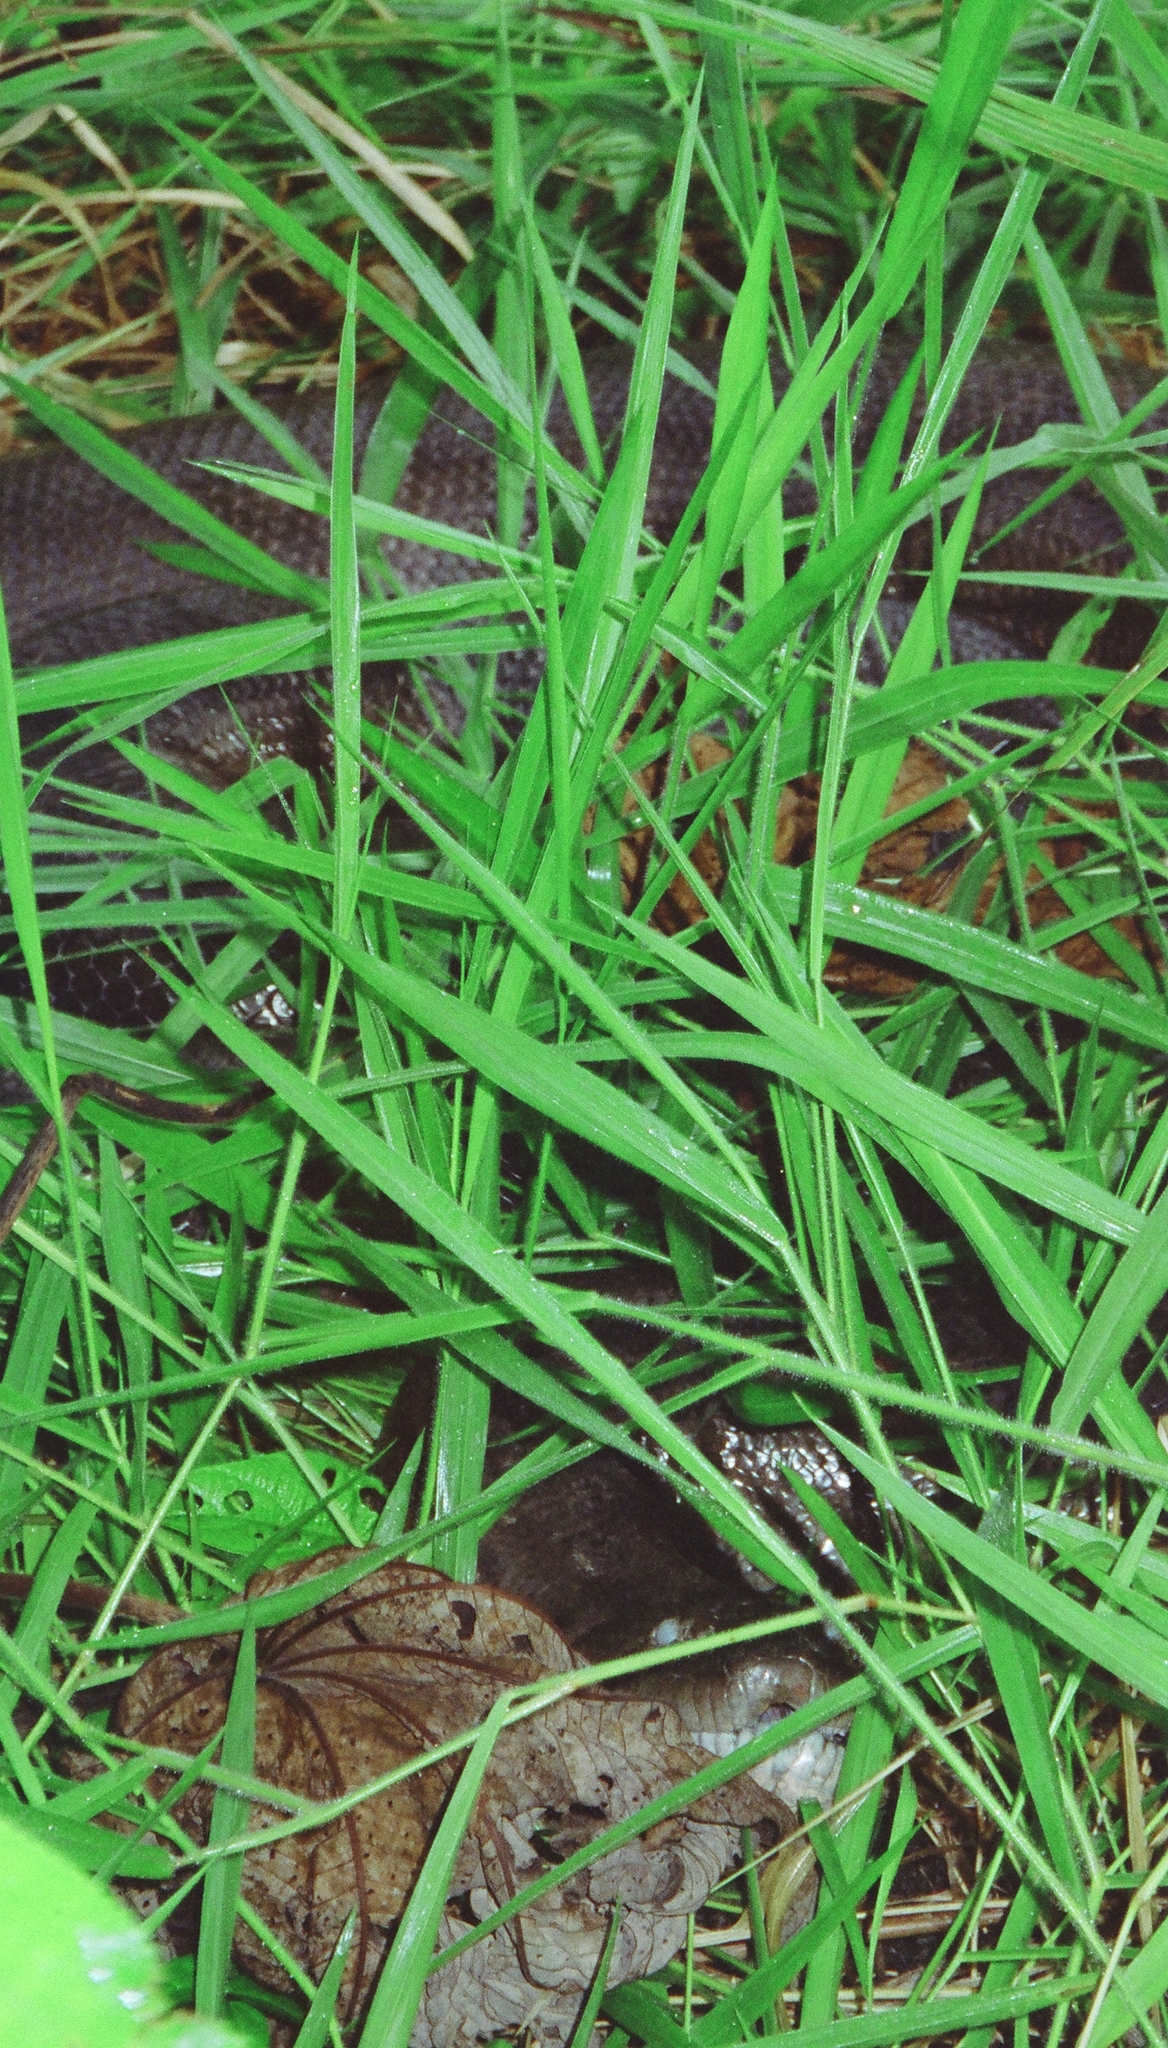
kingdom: Animalia
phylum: Chordata
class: Squamata
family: Boidae
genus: Eunectes
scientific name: Eunectes murinus
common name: Anaconda
